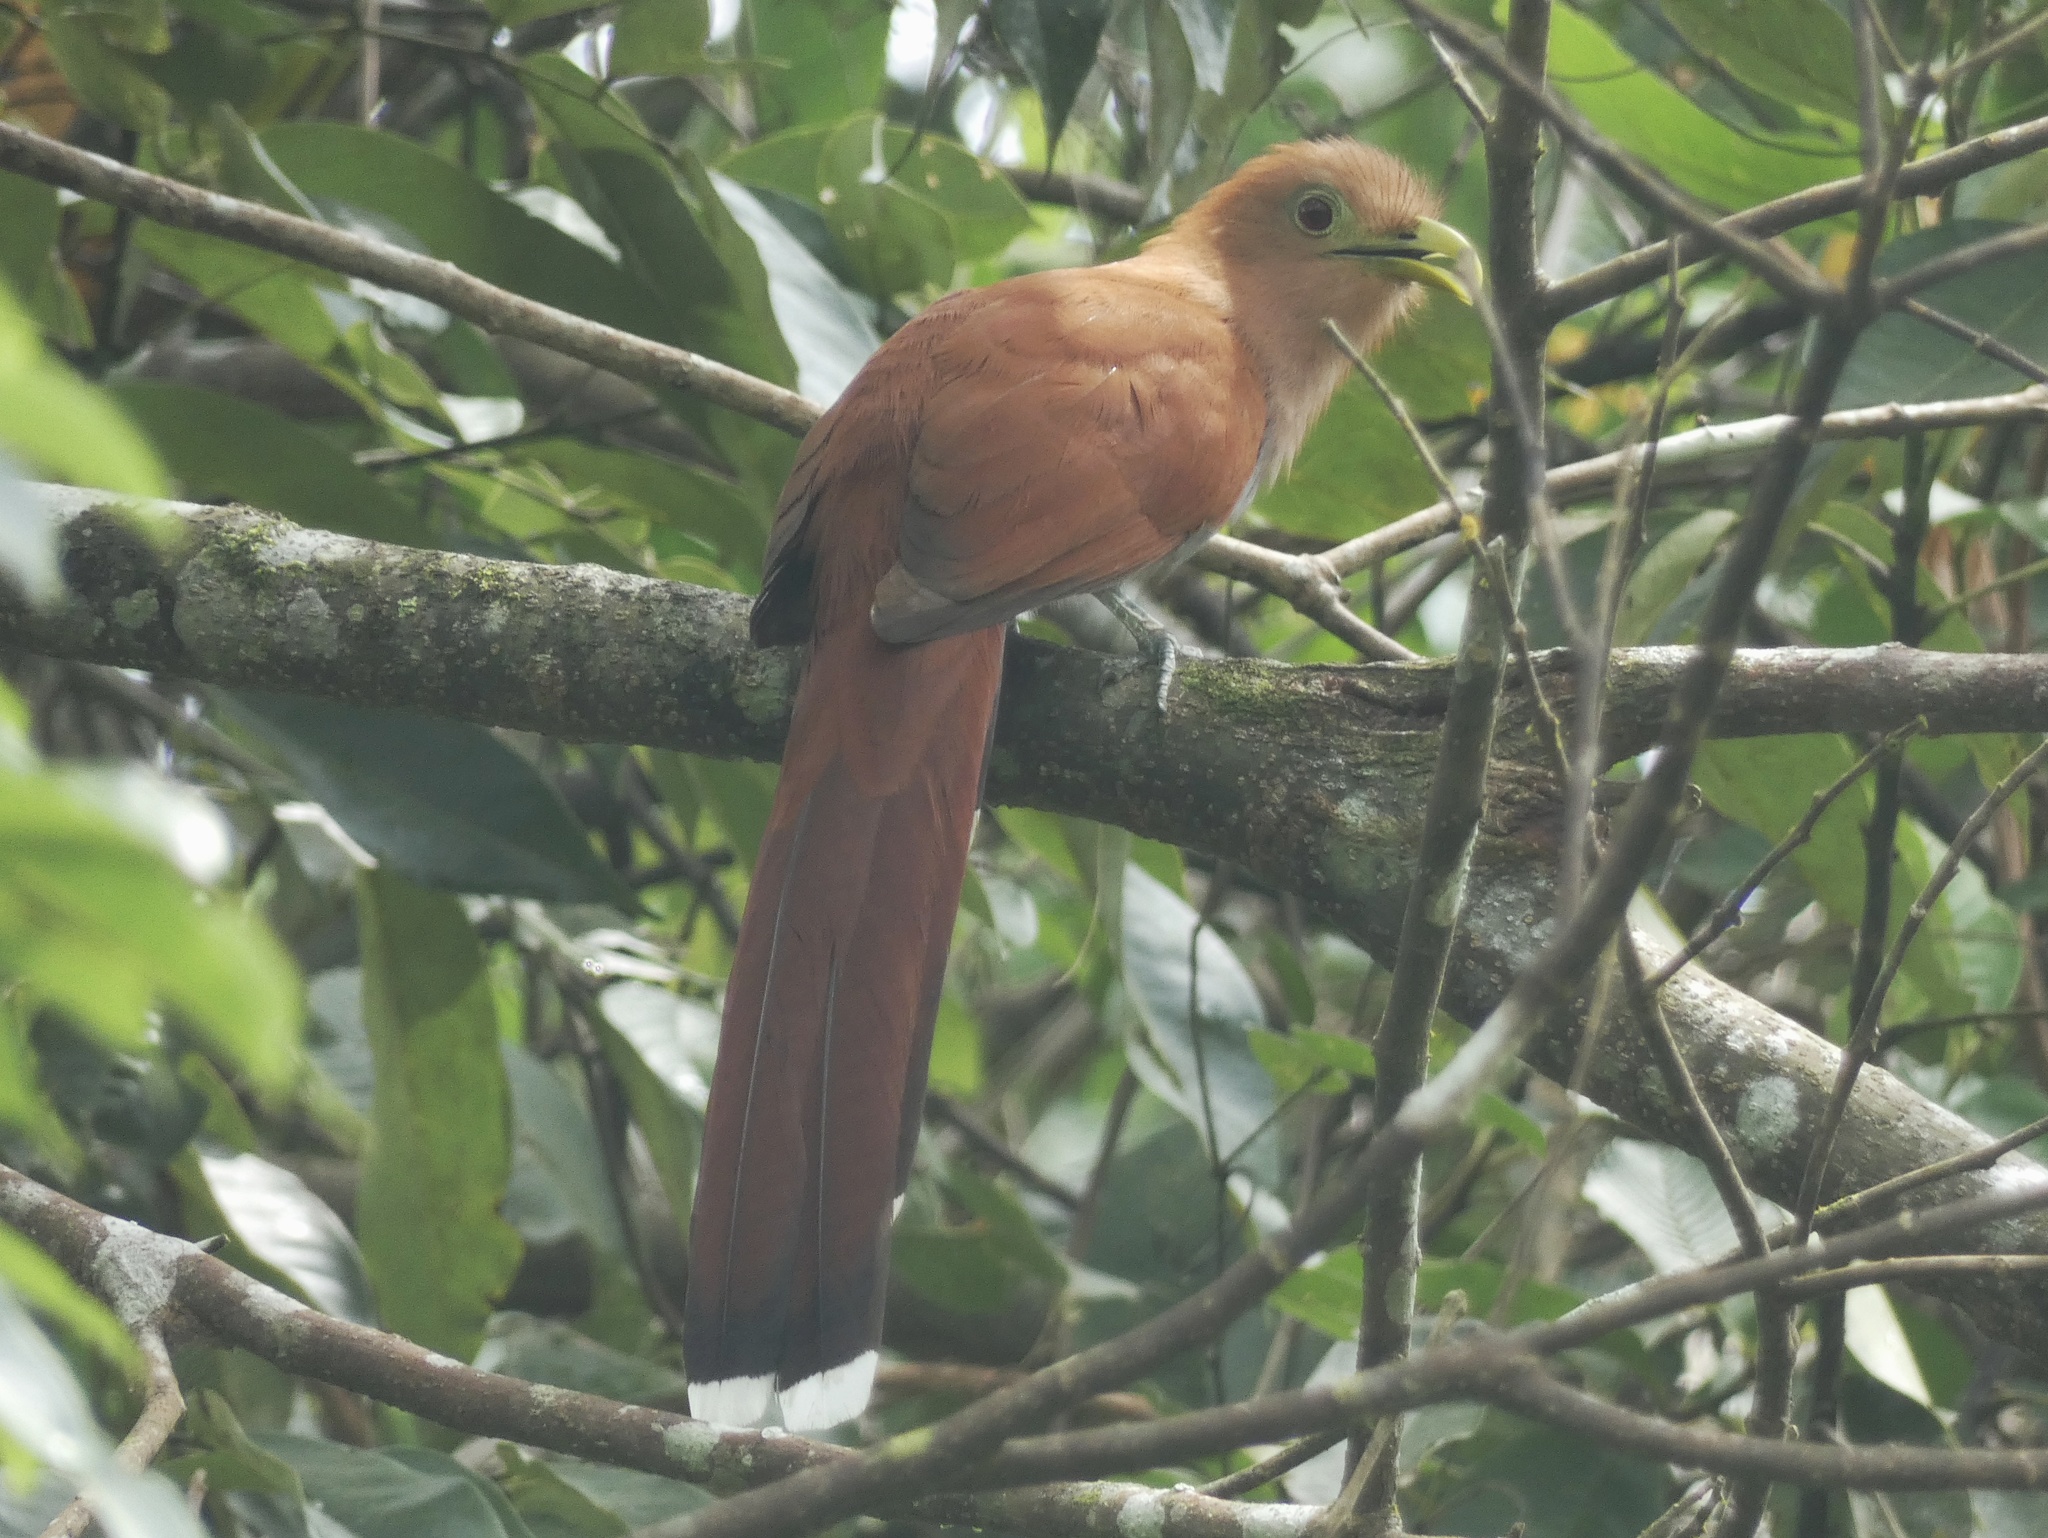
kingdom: Animalia
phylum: Chordata
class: Aves
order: Cuculiformes
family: Cuculidae
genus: Piaya
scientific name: Piaya cayana
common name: Squirrel cuckoo
